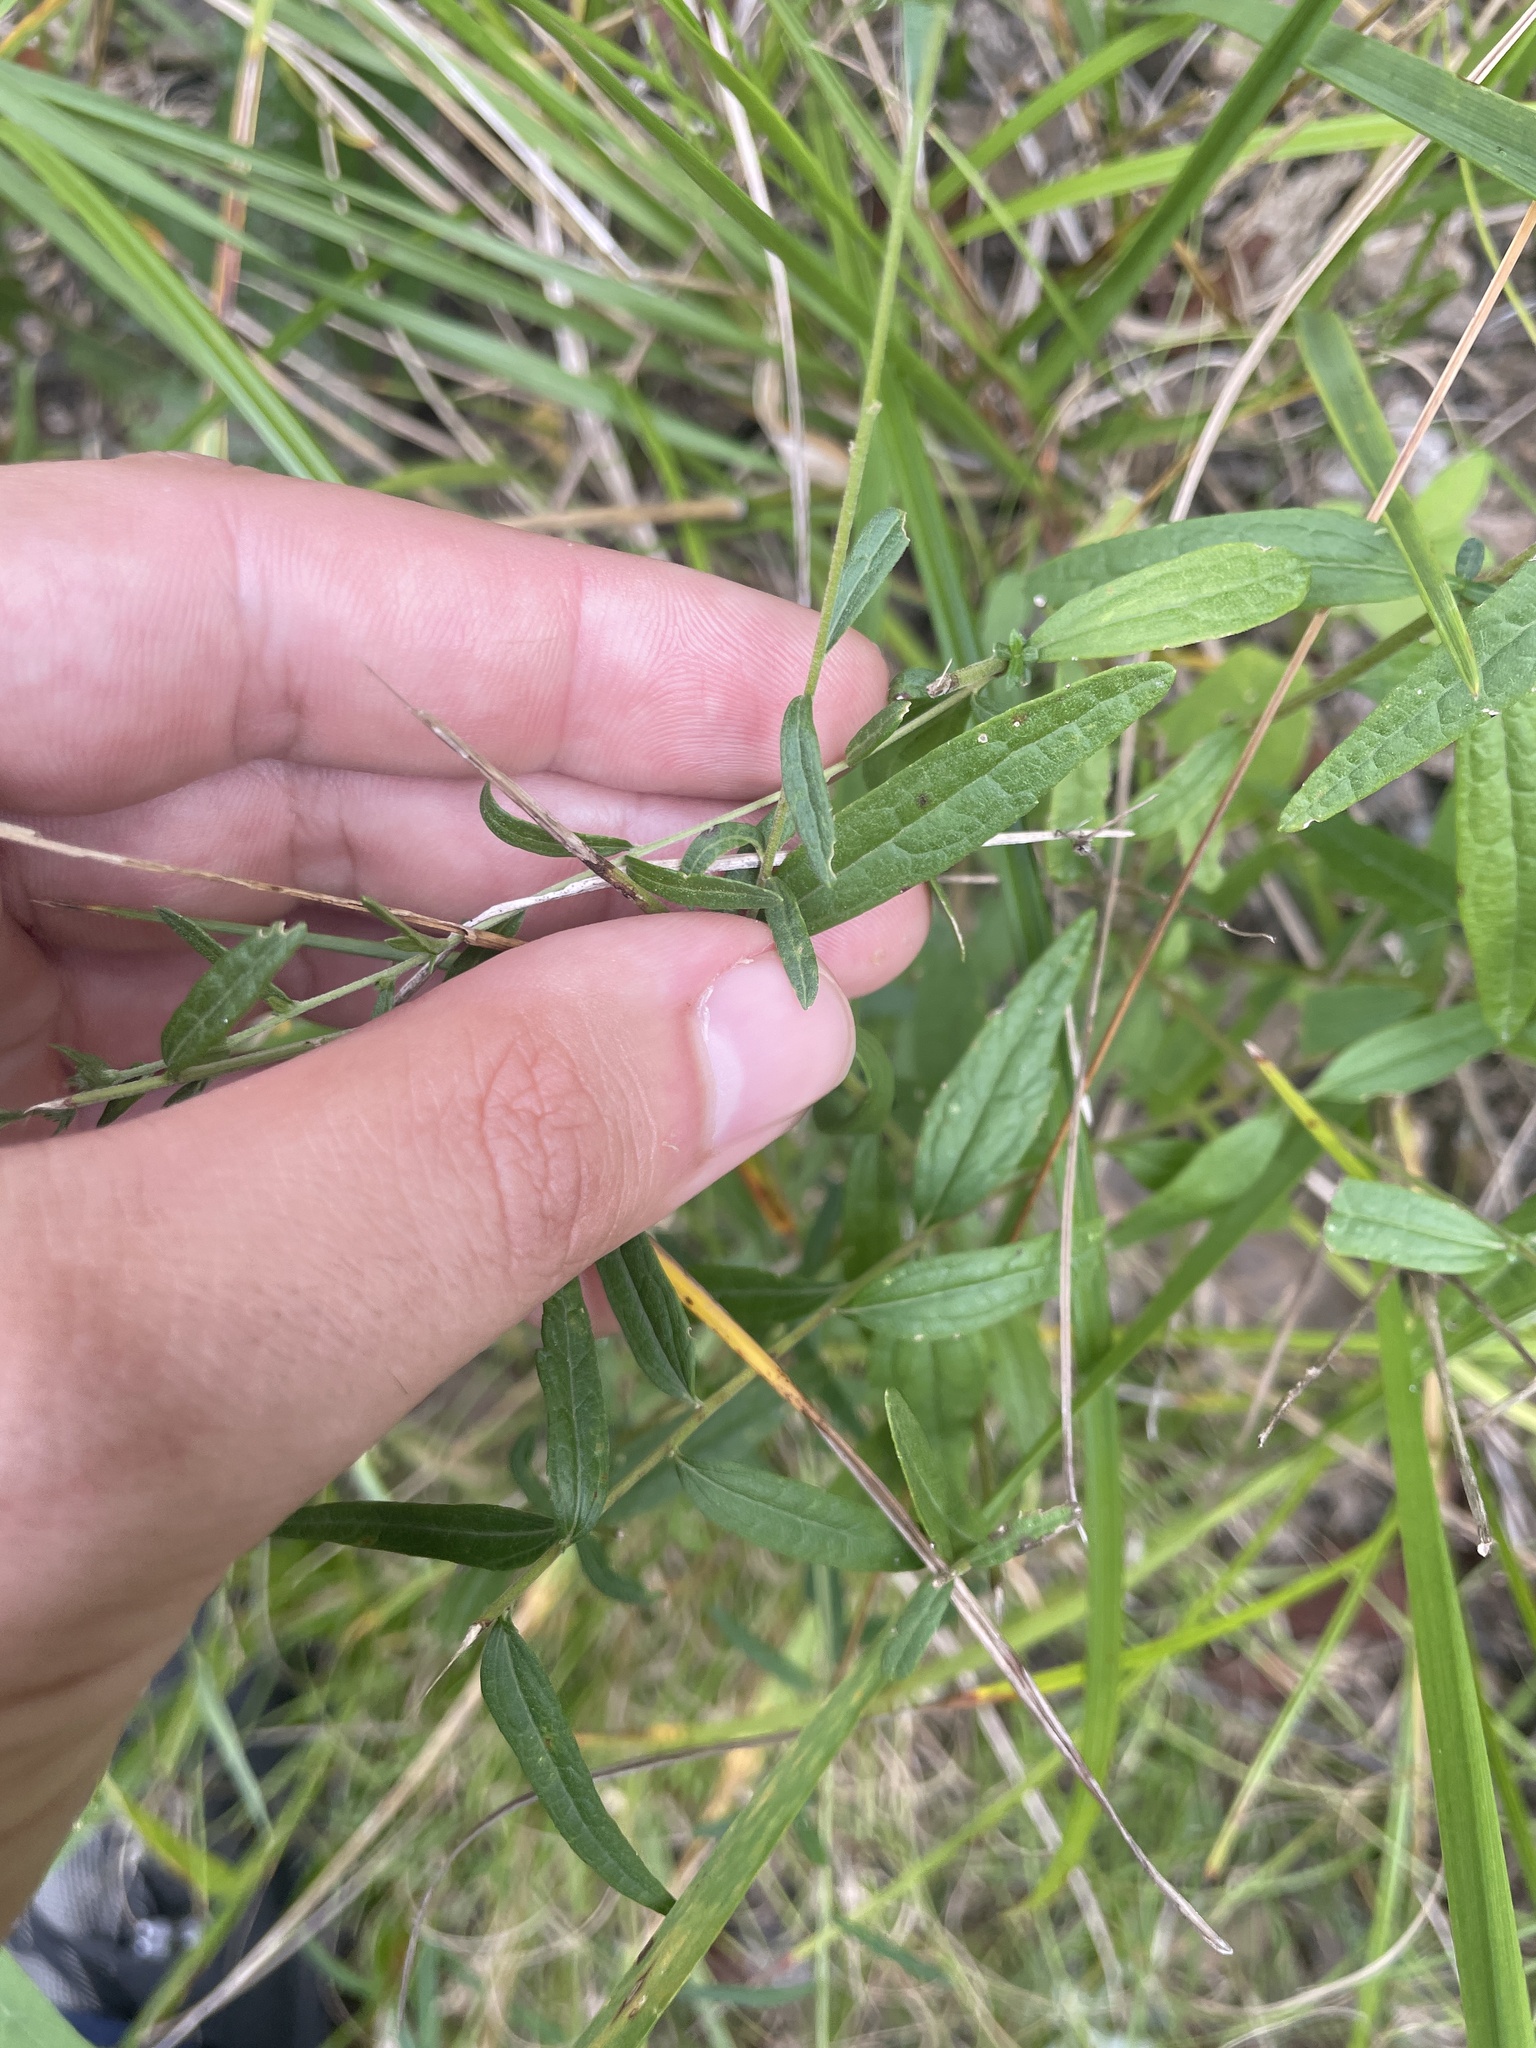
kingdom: Plantae
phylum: Tracheophyta
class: Magnoliopsida
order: Asterales
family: Asteraceae
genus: Brickellia
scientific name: Brickellia eupatorioides
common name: False boneset
